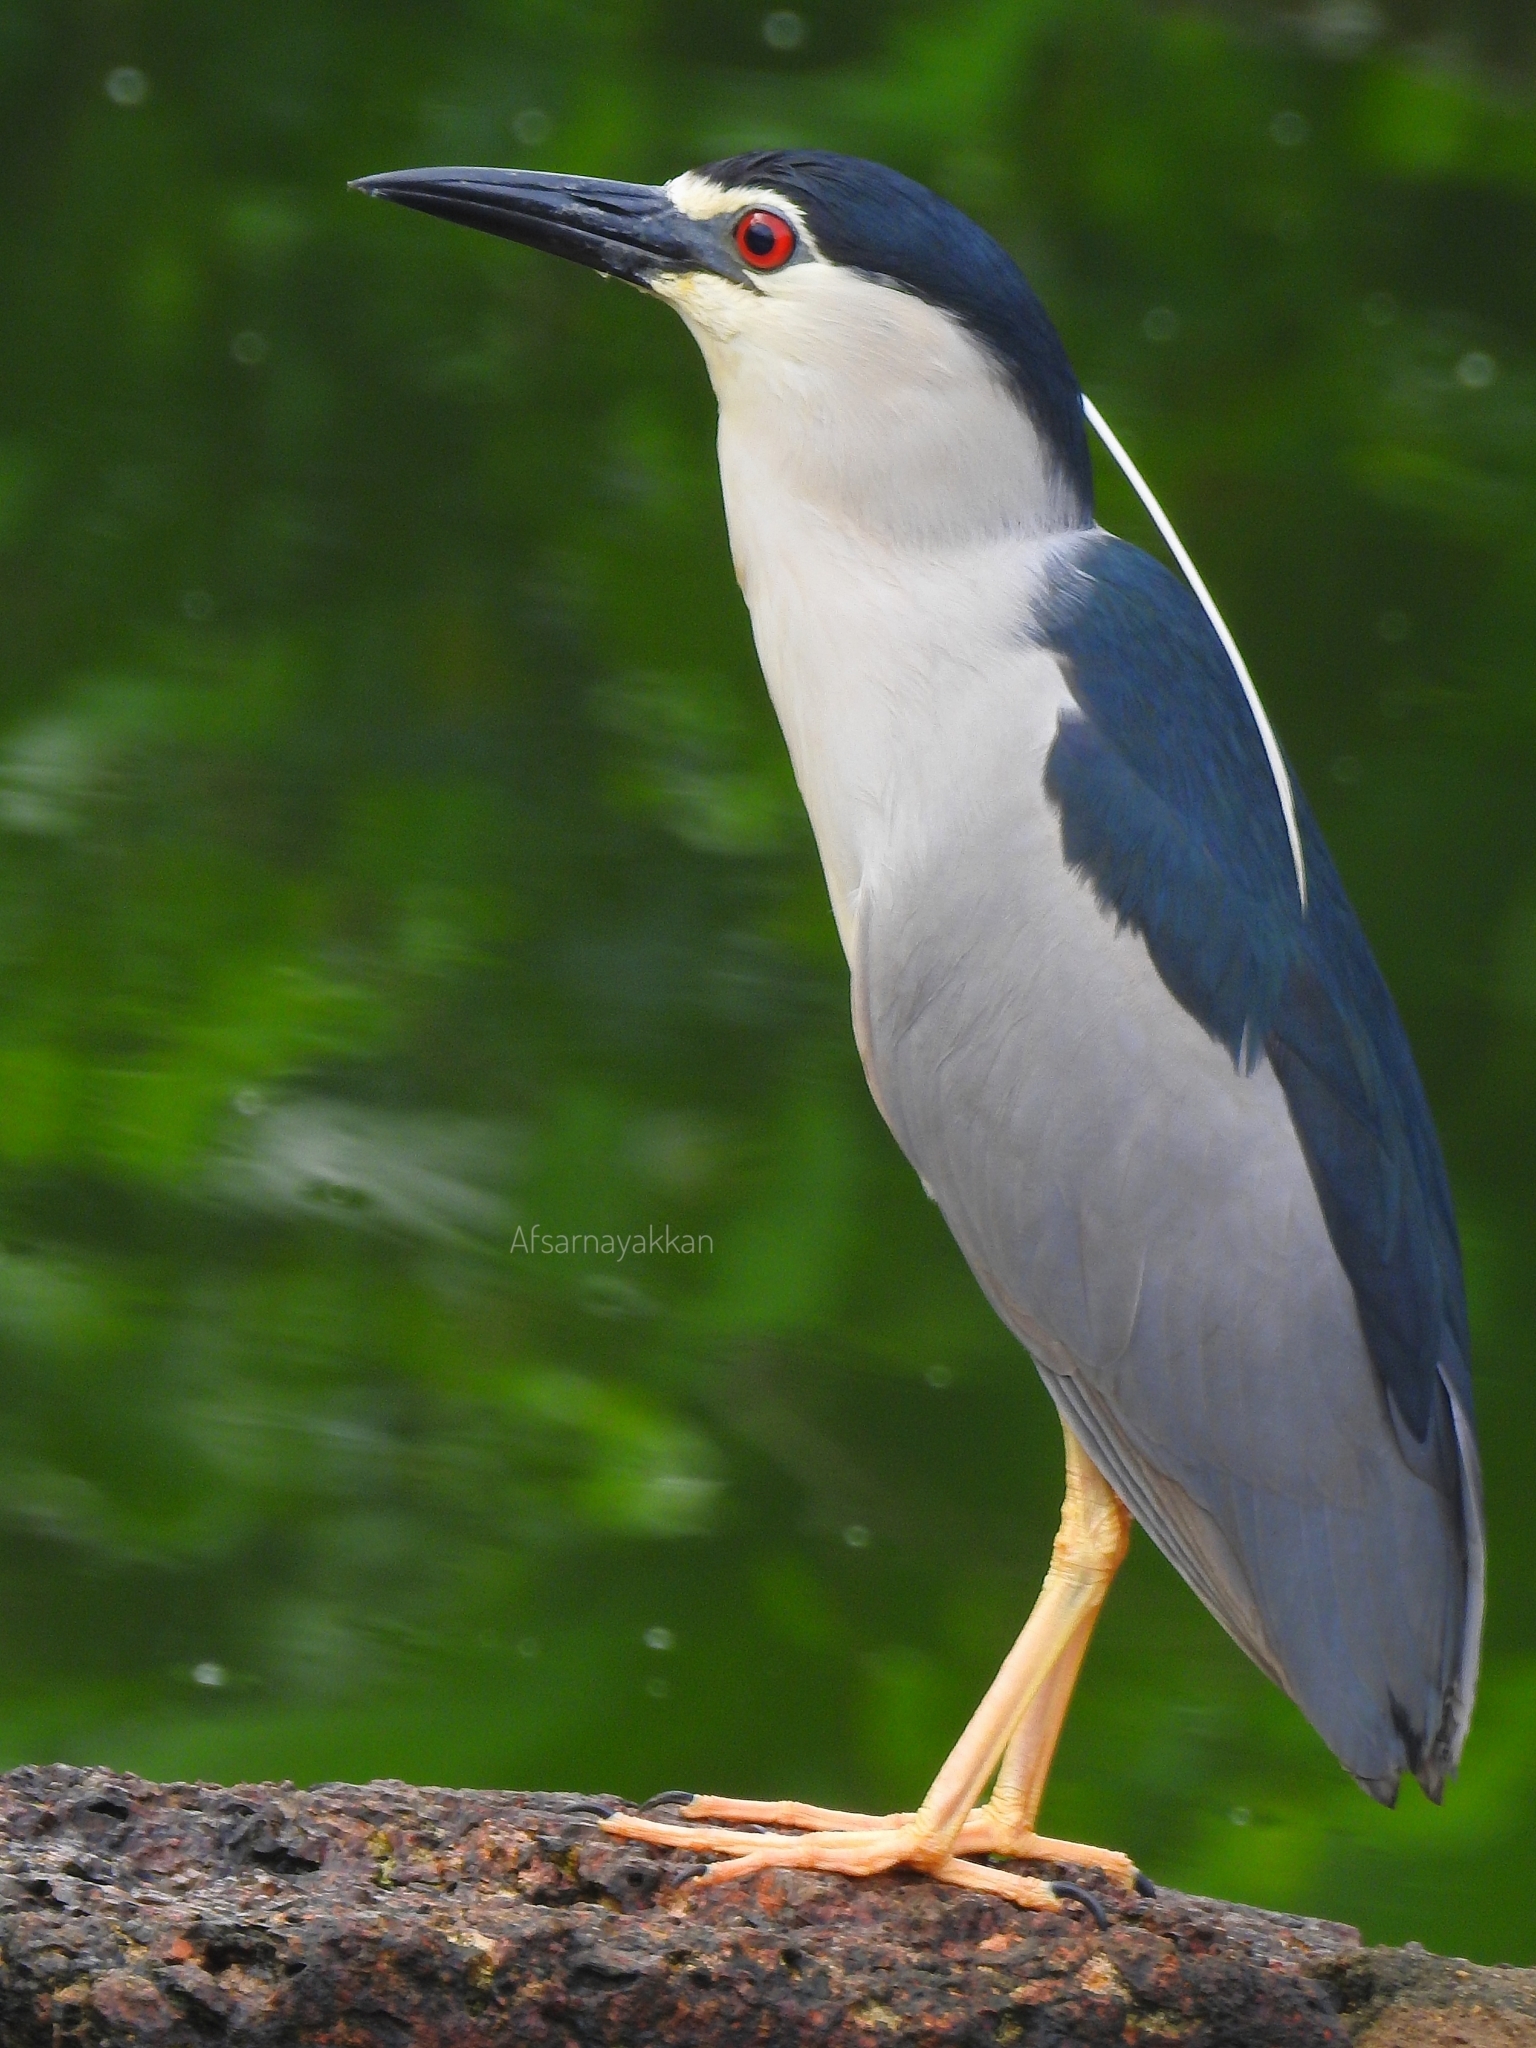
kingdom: Animalia
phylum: Chordata
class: Aves
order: Pelecaniformes
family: Ardeidae
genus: Nycticorax
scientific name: Nycticorax nycticorax
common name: Black-crowned night heron
